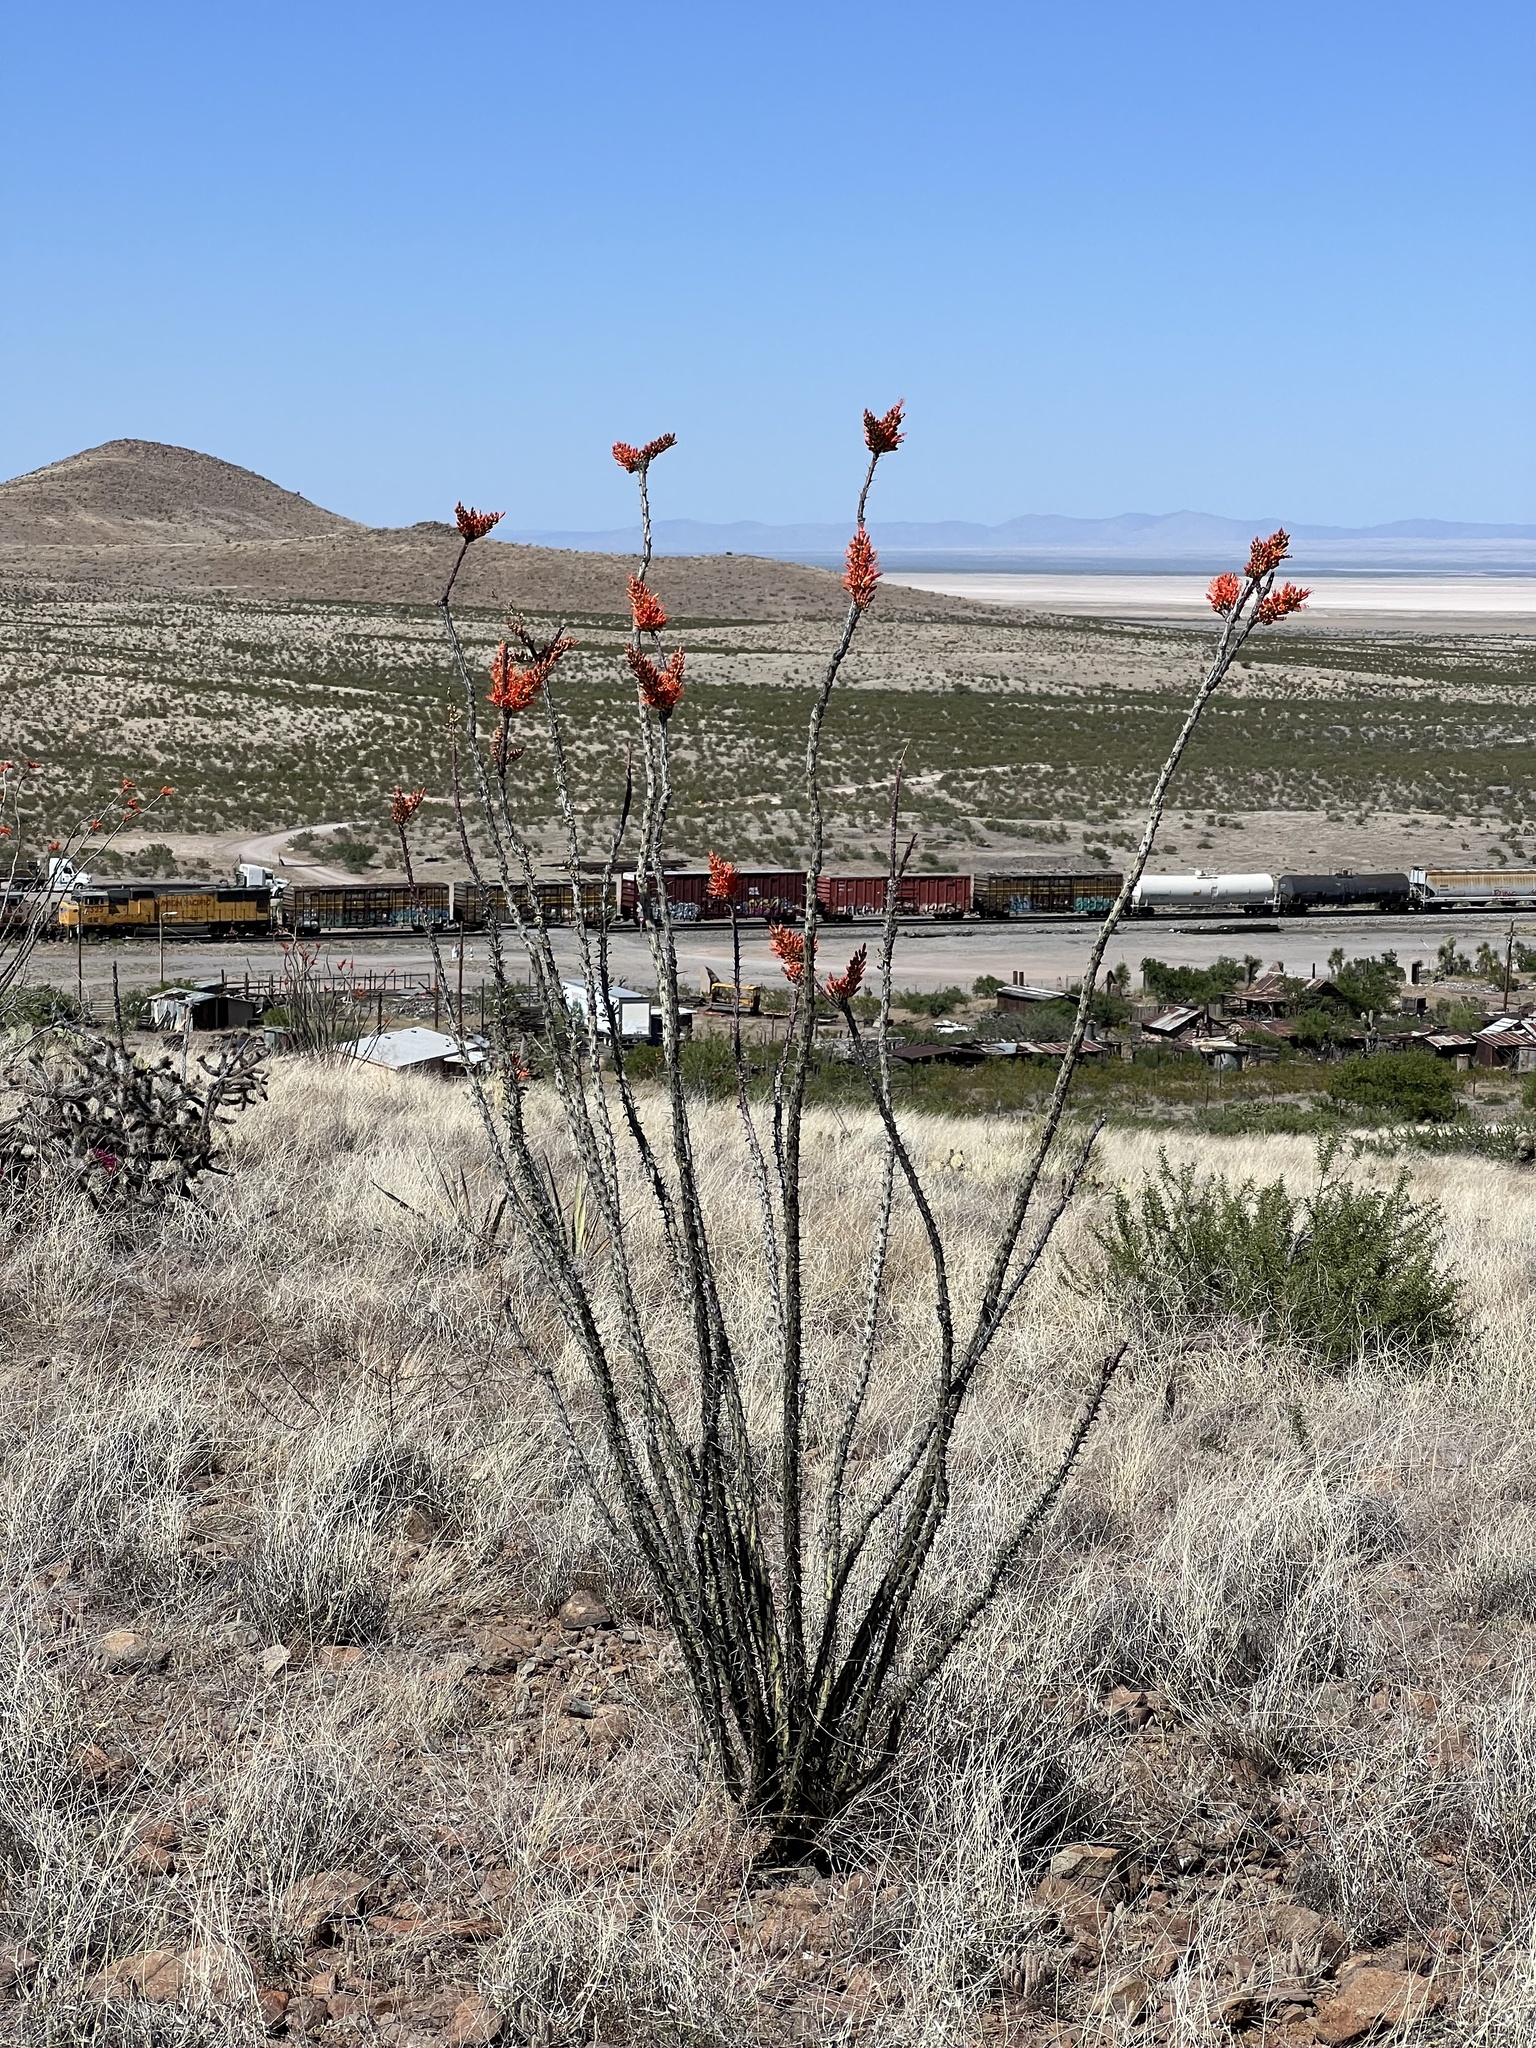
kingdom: Plantae
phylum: Tracheophyta
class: Magnoliopsida
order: Ericales
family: Fouquieriaceae
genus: Fouquieria
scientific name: Fouquieria splendens
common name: Vine-cactus
